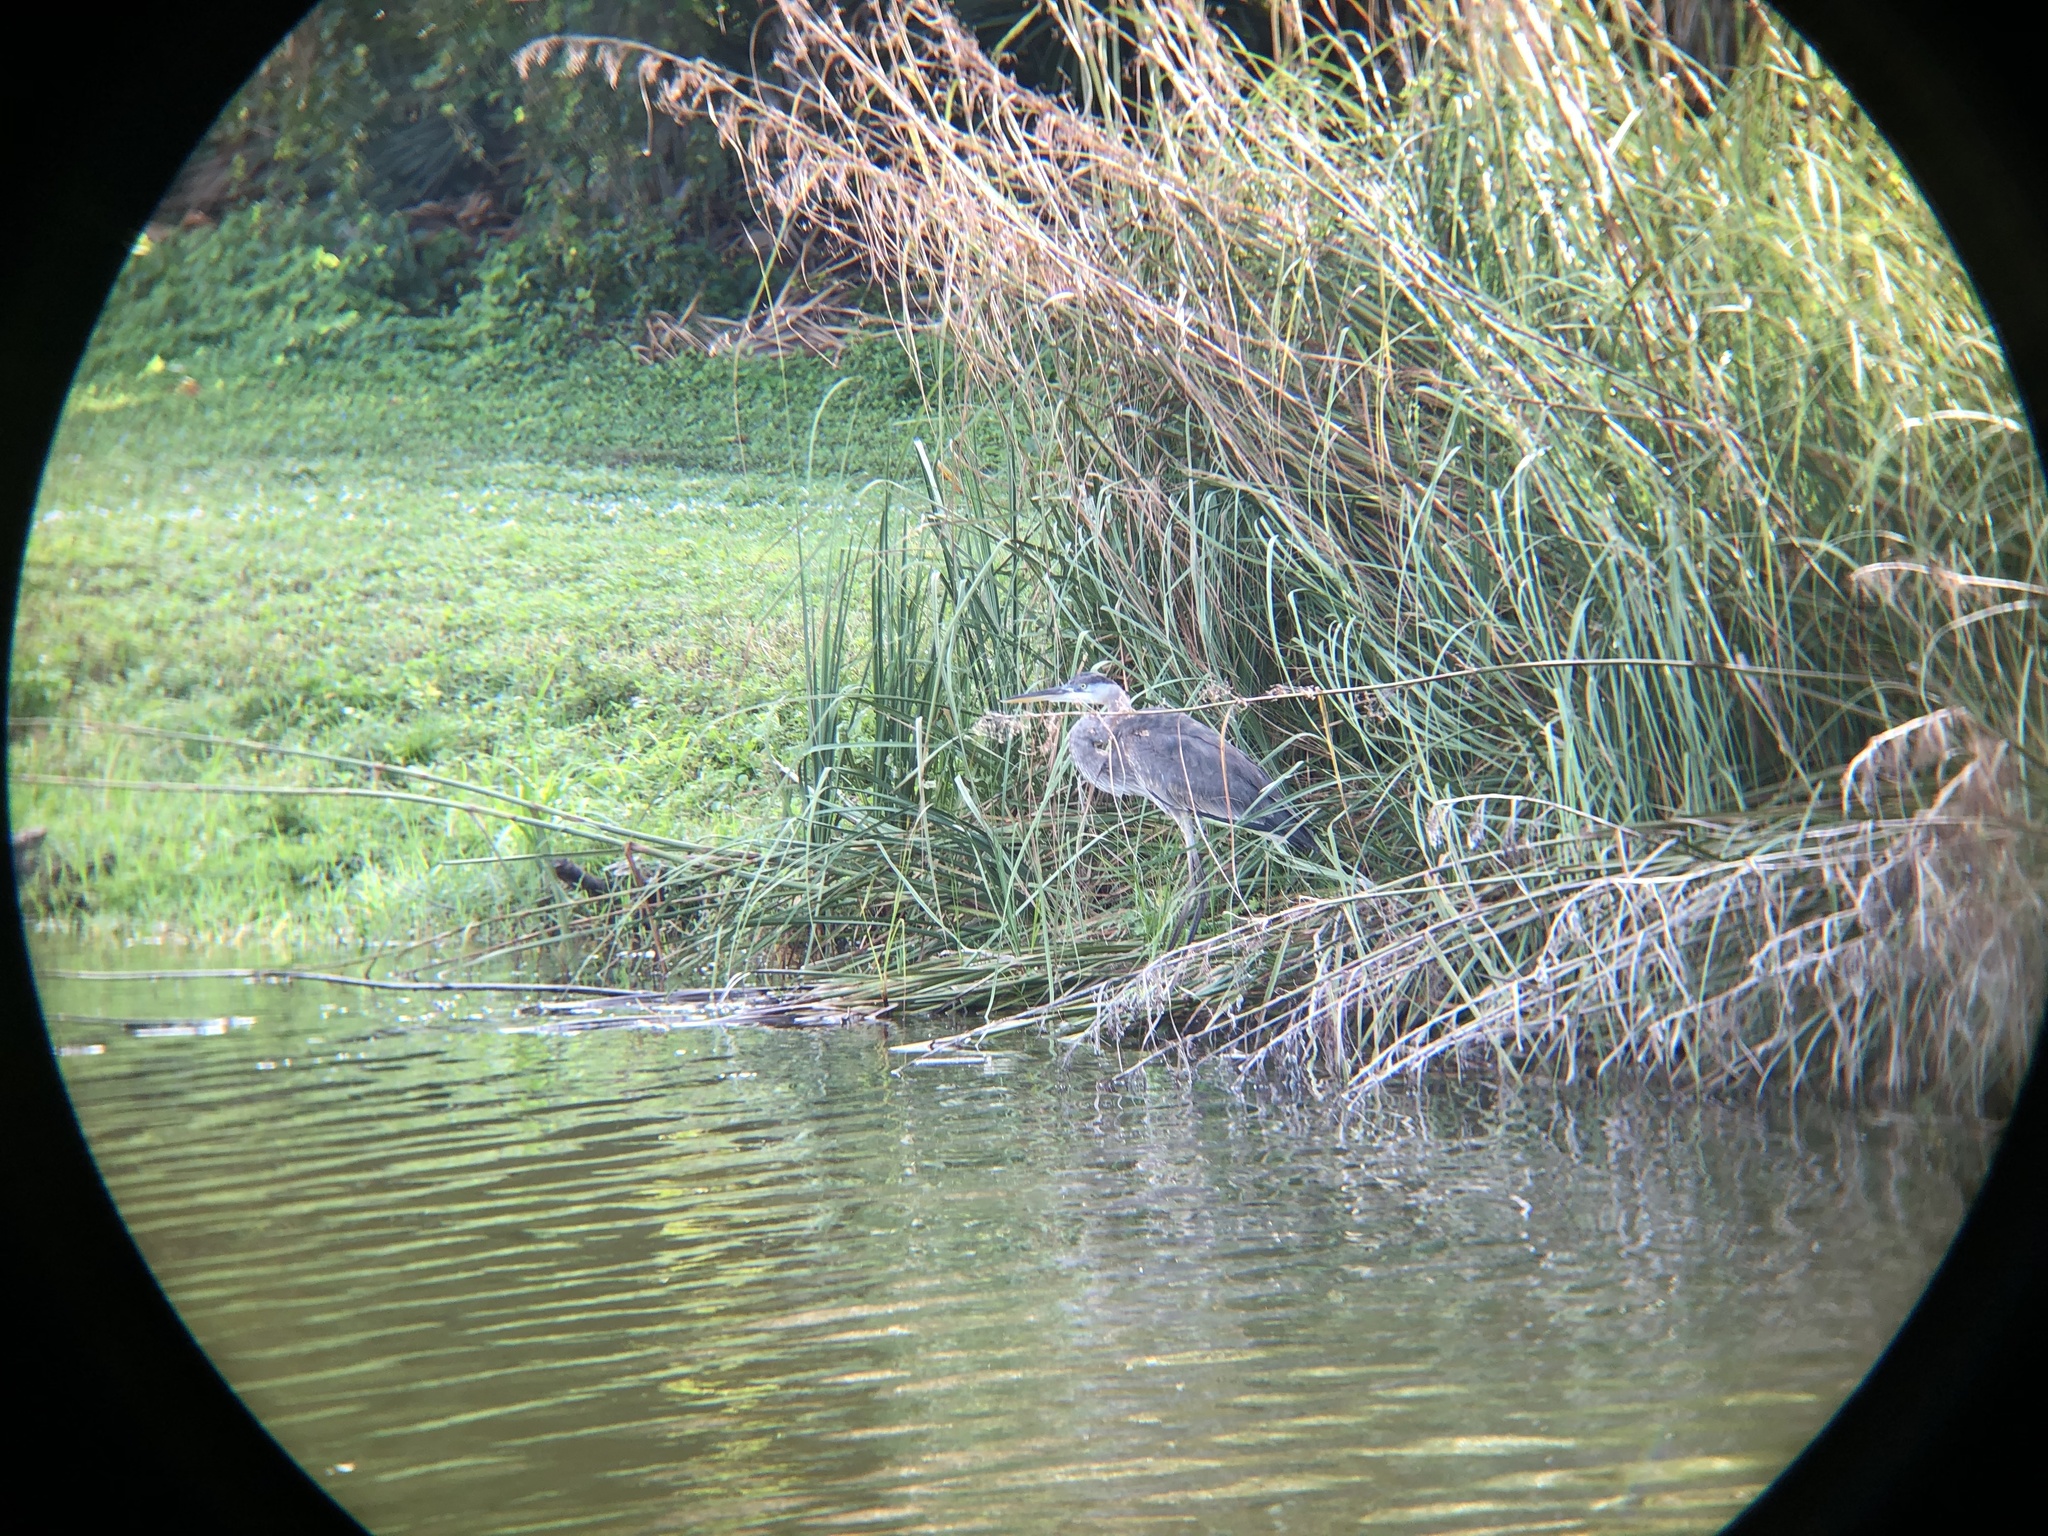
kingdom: Animalia
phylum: Chordata
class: Aves
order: Pelecaniformes
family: Ardeidae
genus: Ardea
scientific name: Ardea herodias
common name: Great blue heron
